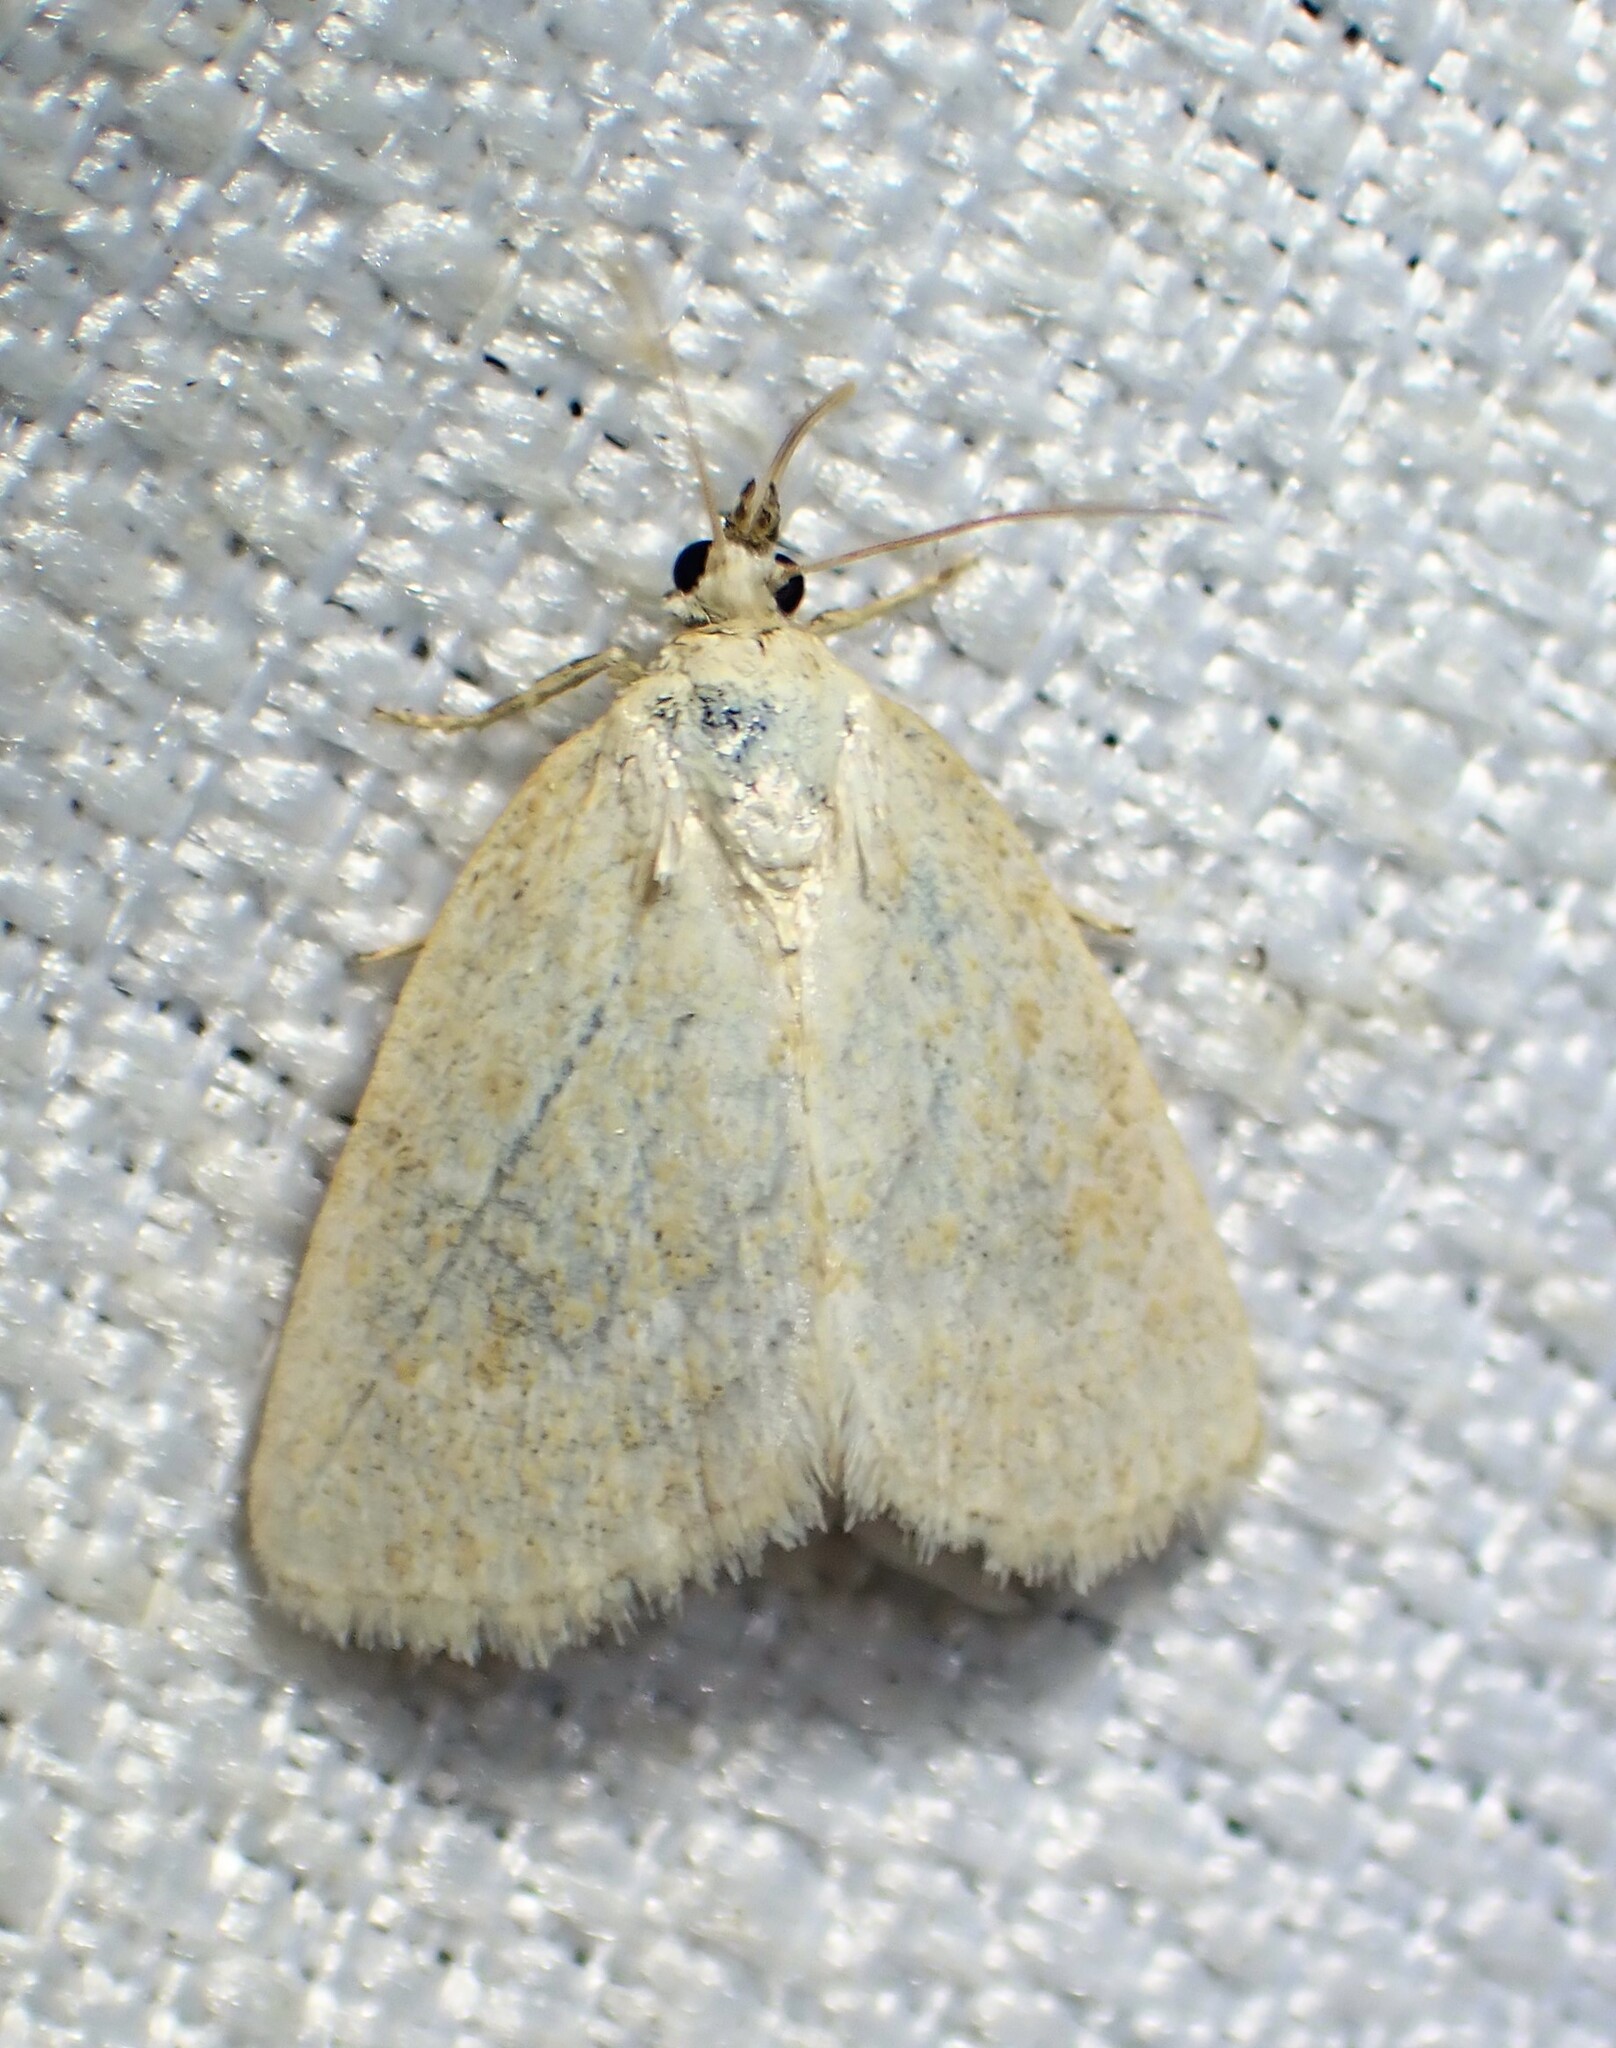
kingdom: Animalia
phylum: Arthropoda
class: Insecta
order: Lepidoptera
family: Noctuidae
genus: Protodeltote
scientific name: Protodeltote albidula
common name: Pale glyph
